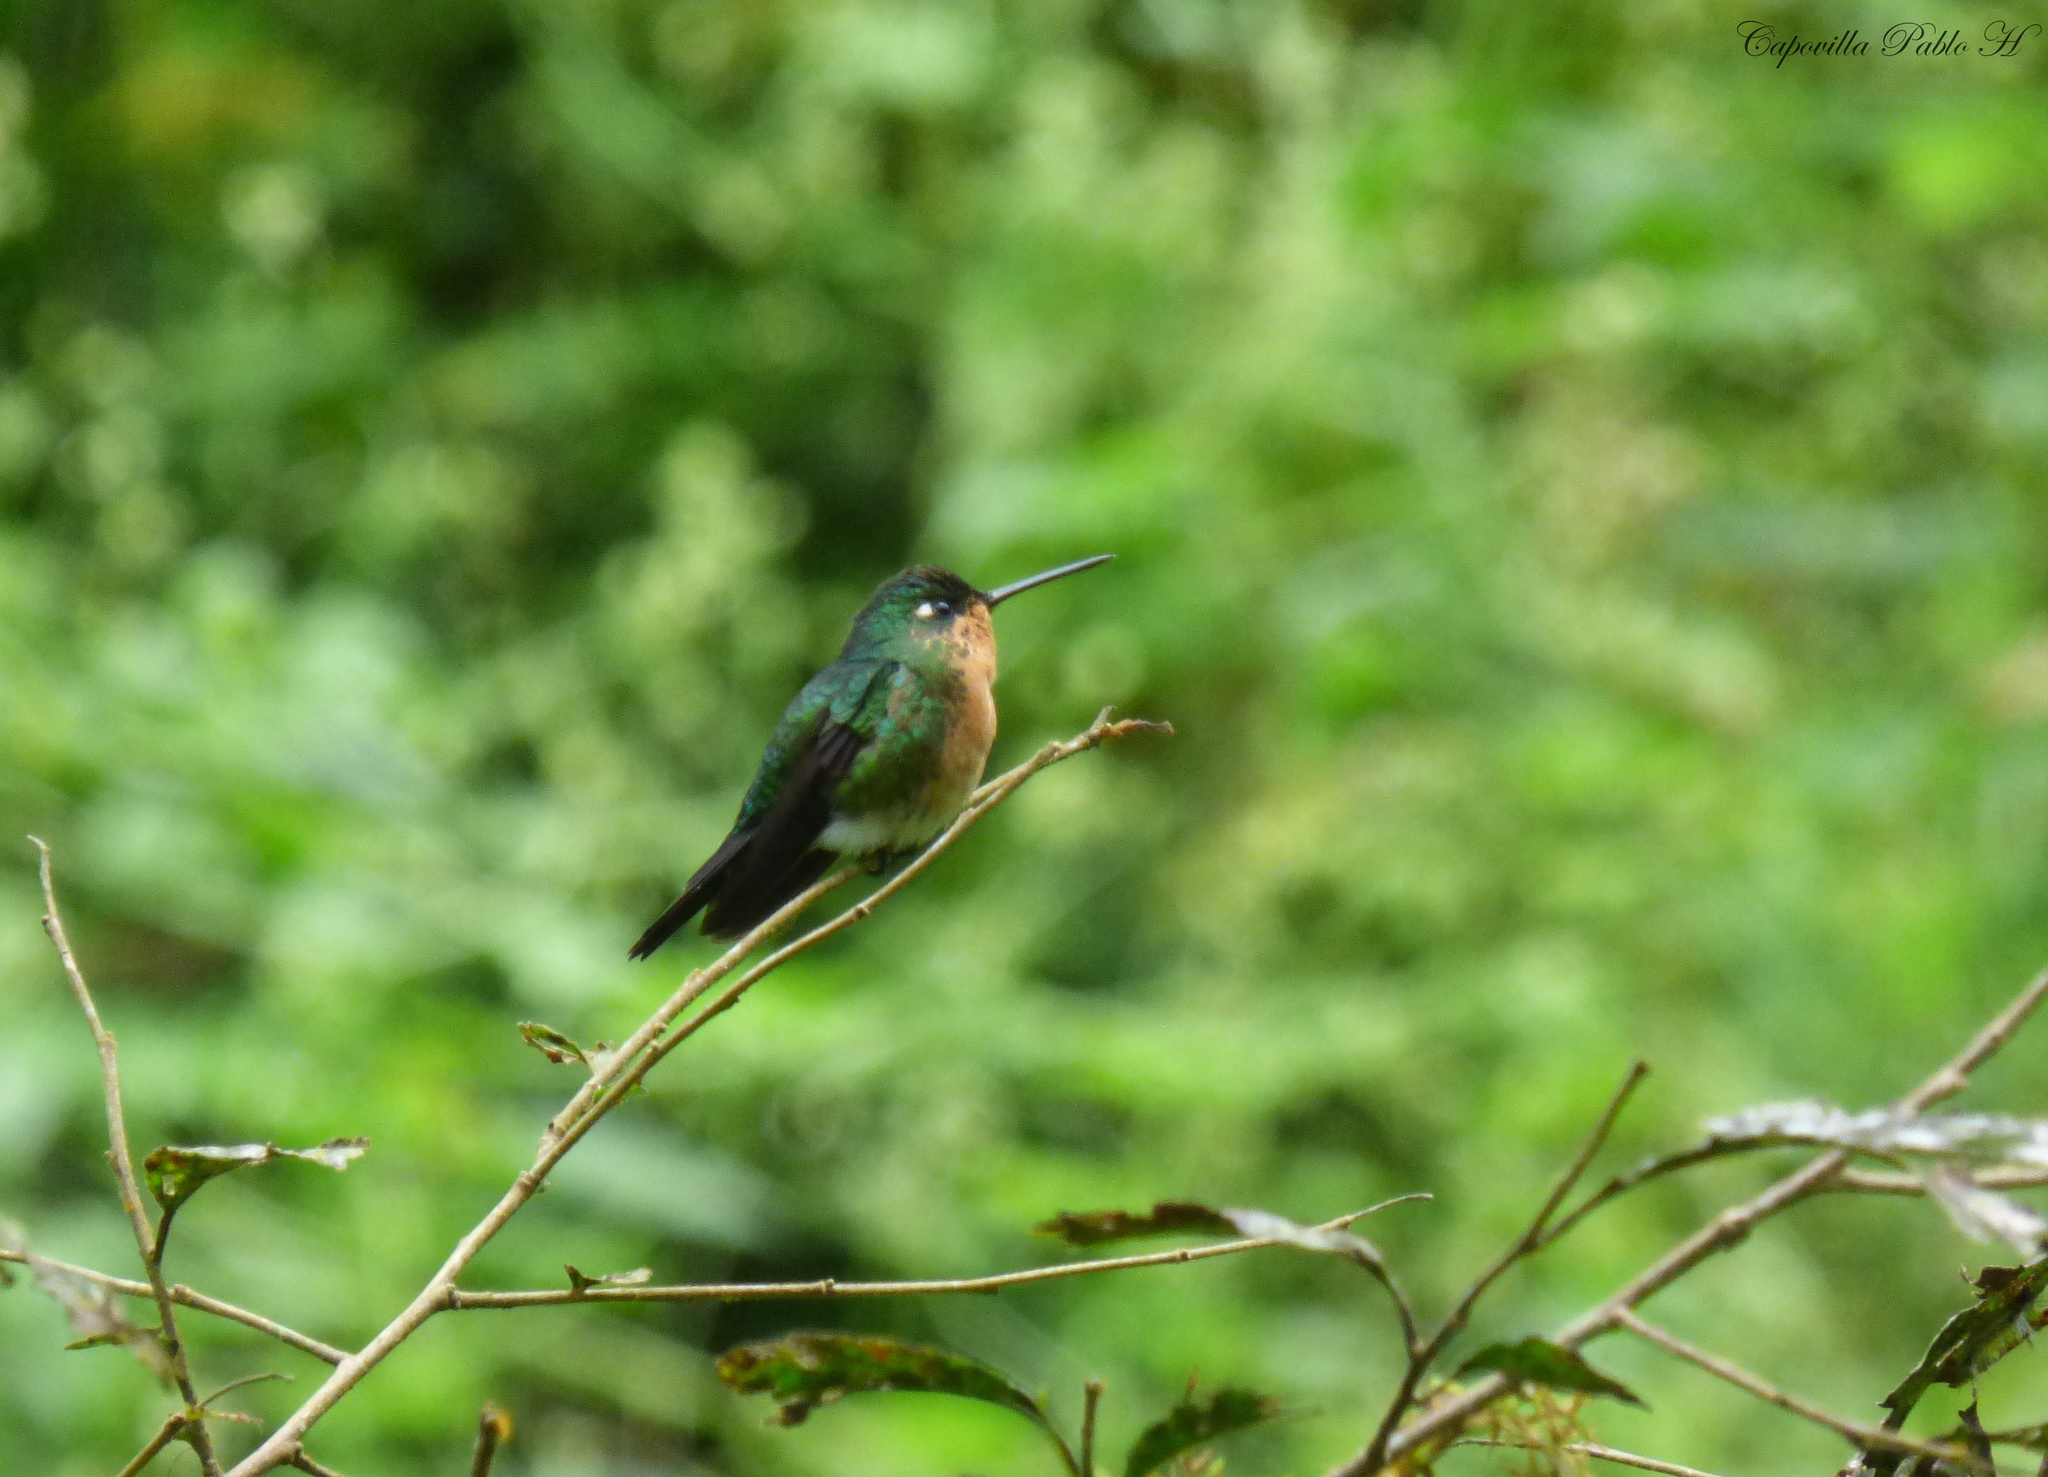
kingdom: Animalia
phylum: Chordata
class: Aves
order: Apodiformes
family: Trochilidae
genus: Eriocnemis
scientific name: Eriocnemis glaucopoides
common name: Blue-capped puffleg
